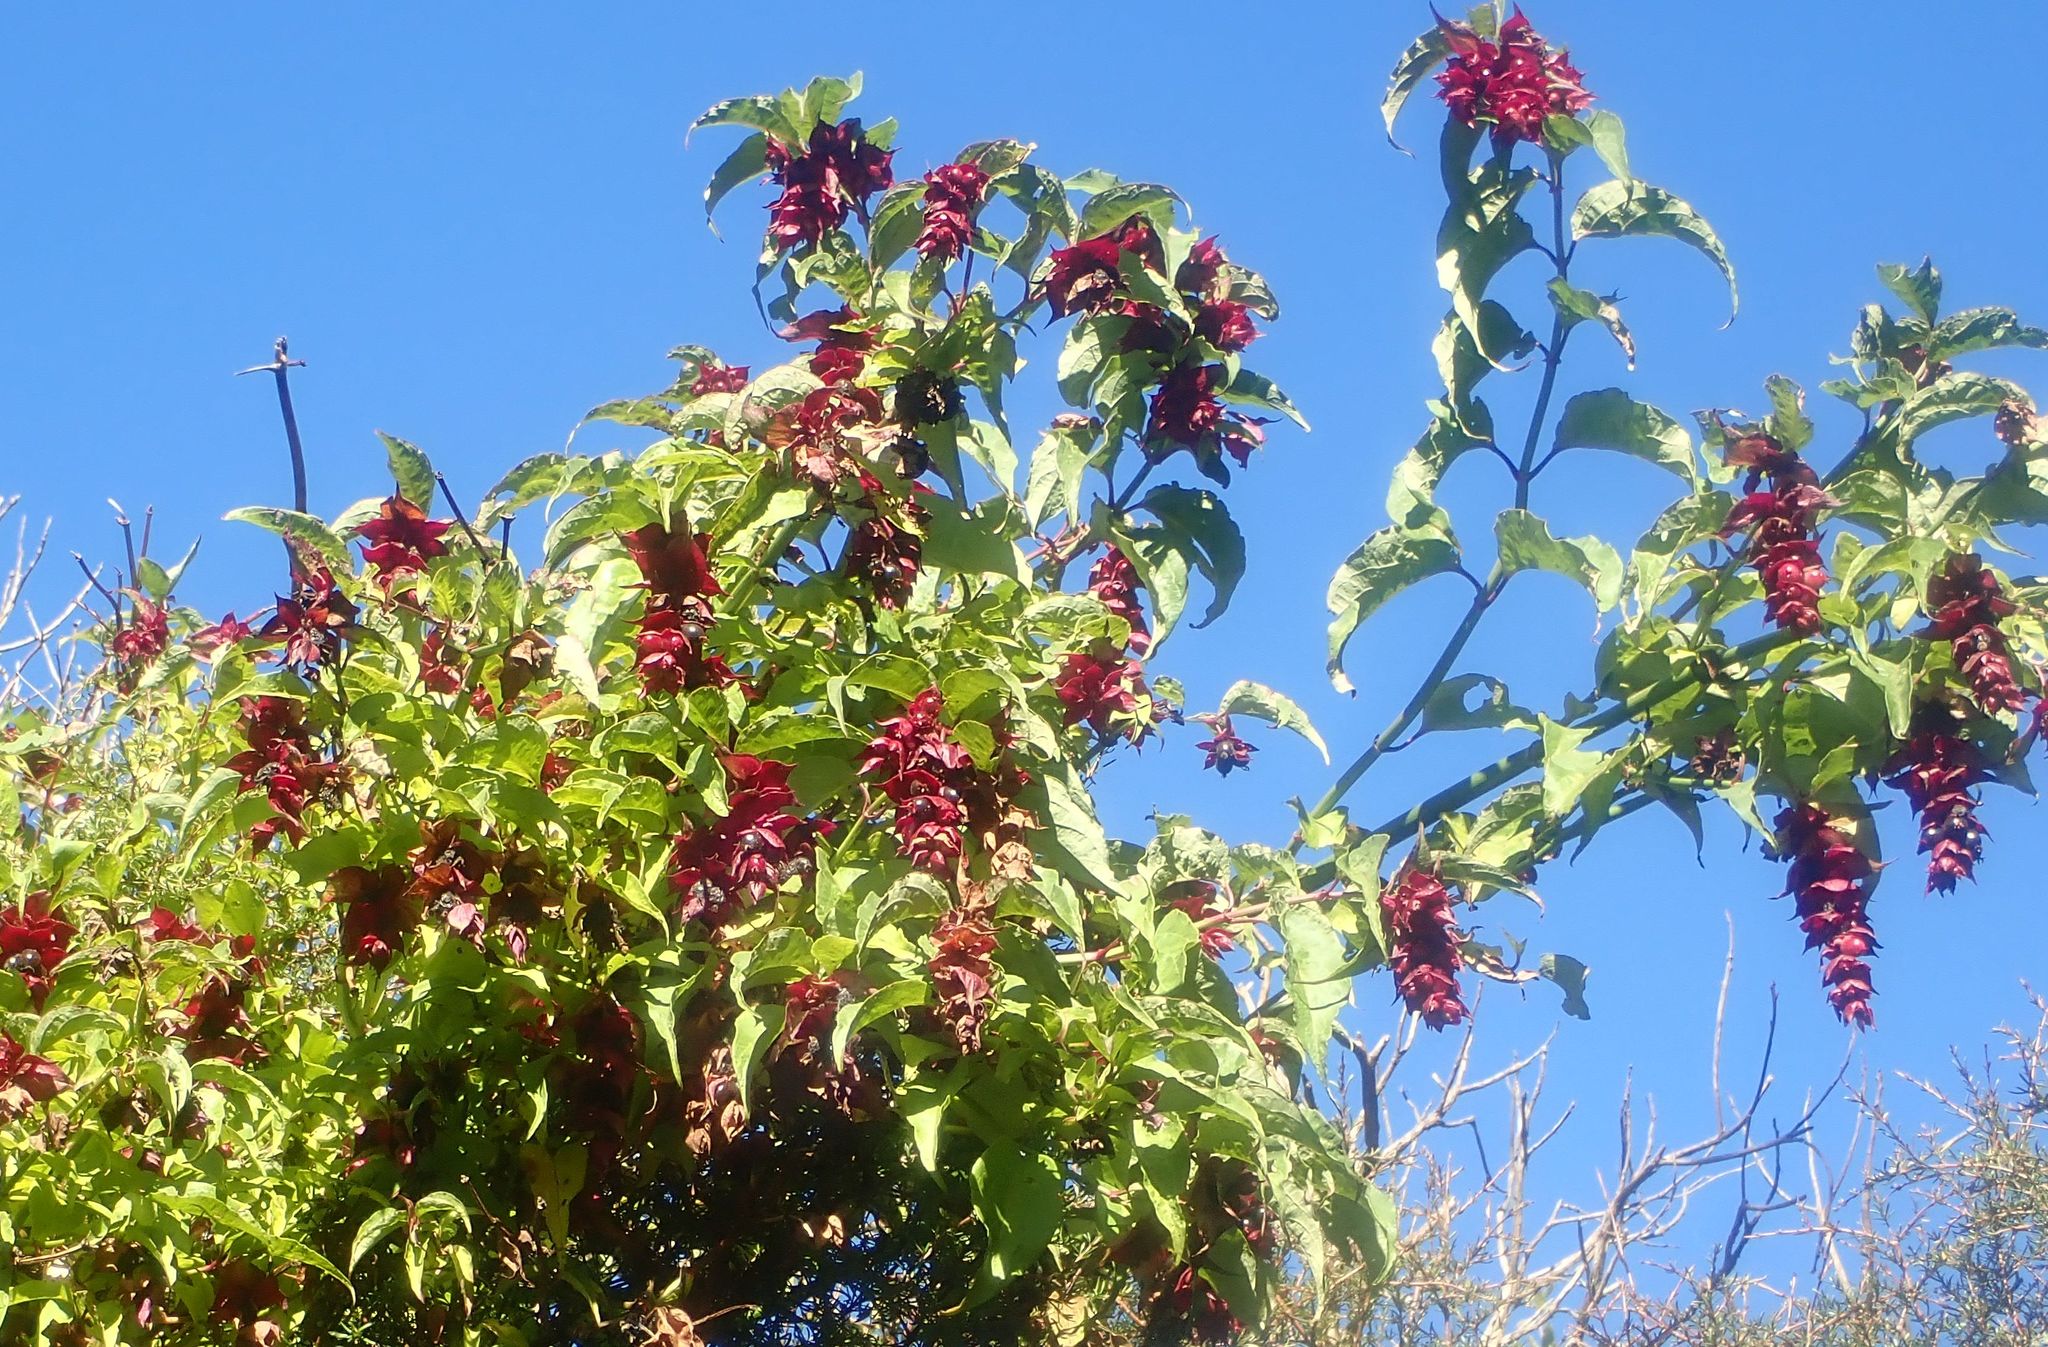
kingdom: Plantae
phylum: Tracheophyta
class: Magnoliopsida
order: Dipsacales
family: Caprifoliaceae
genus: Leycesteria
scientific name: Leycesteria formosa
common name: Himalayan honeysuckle
